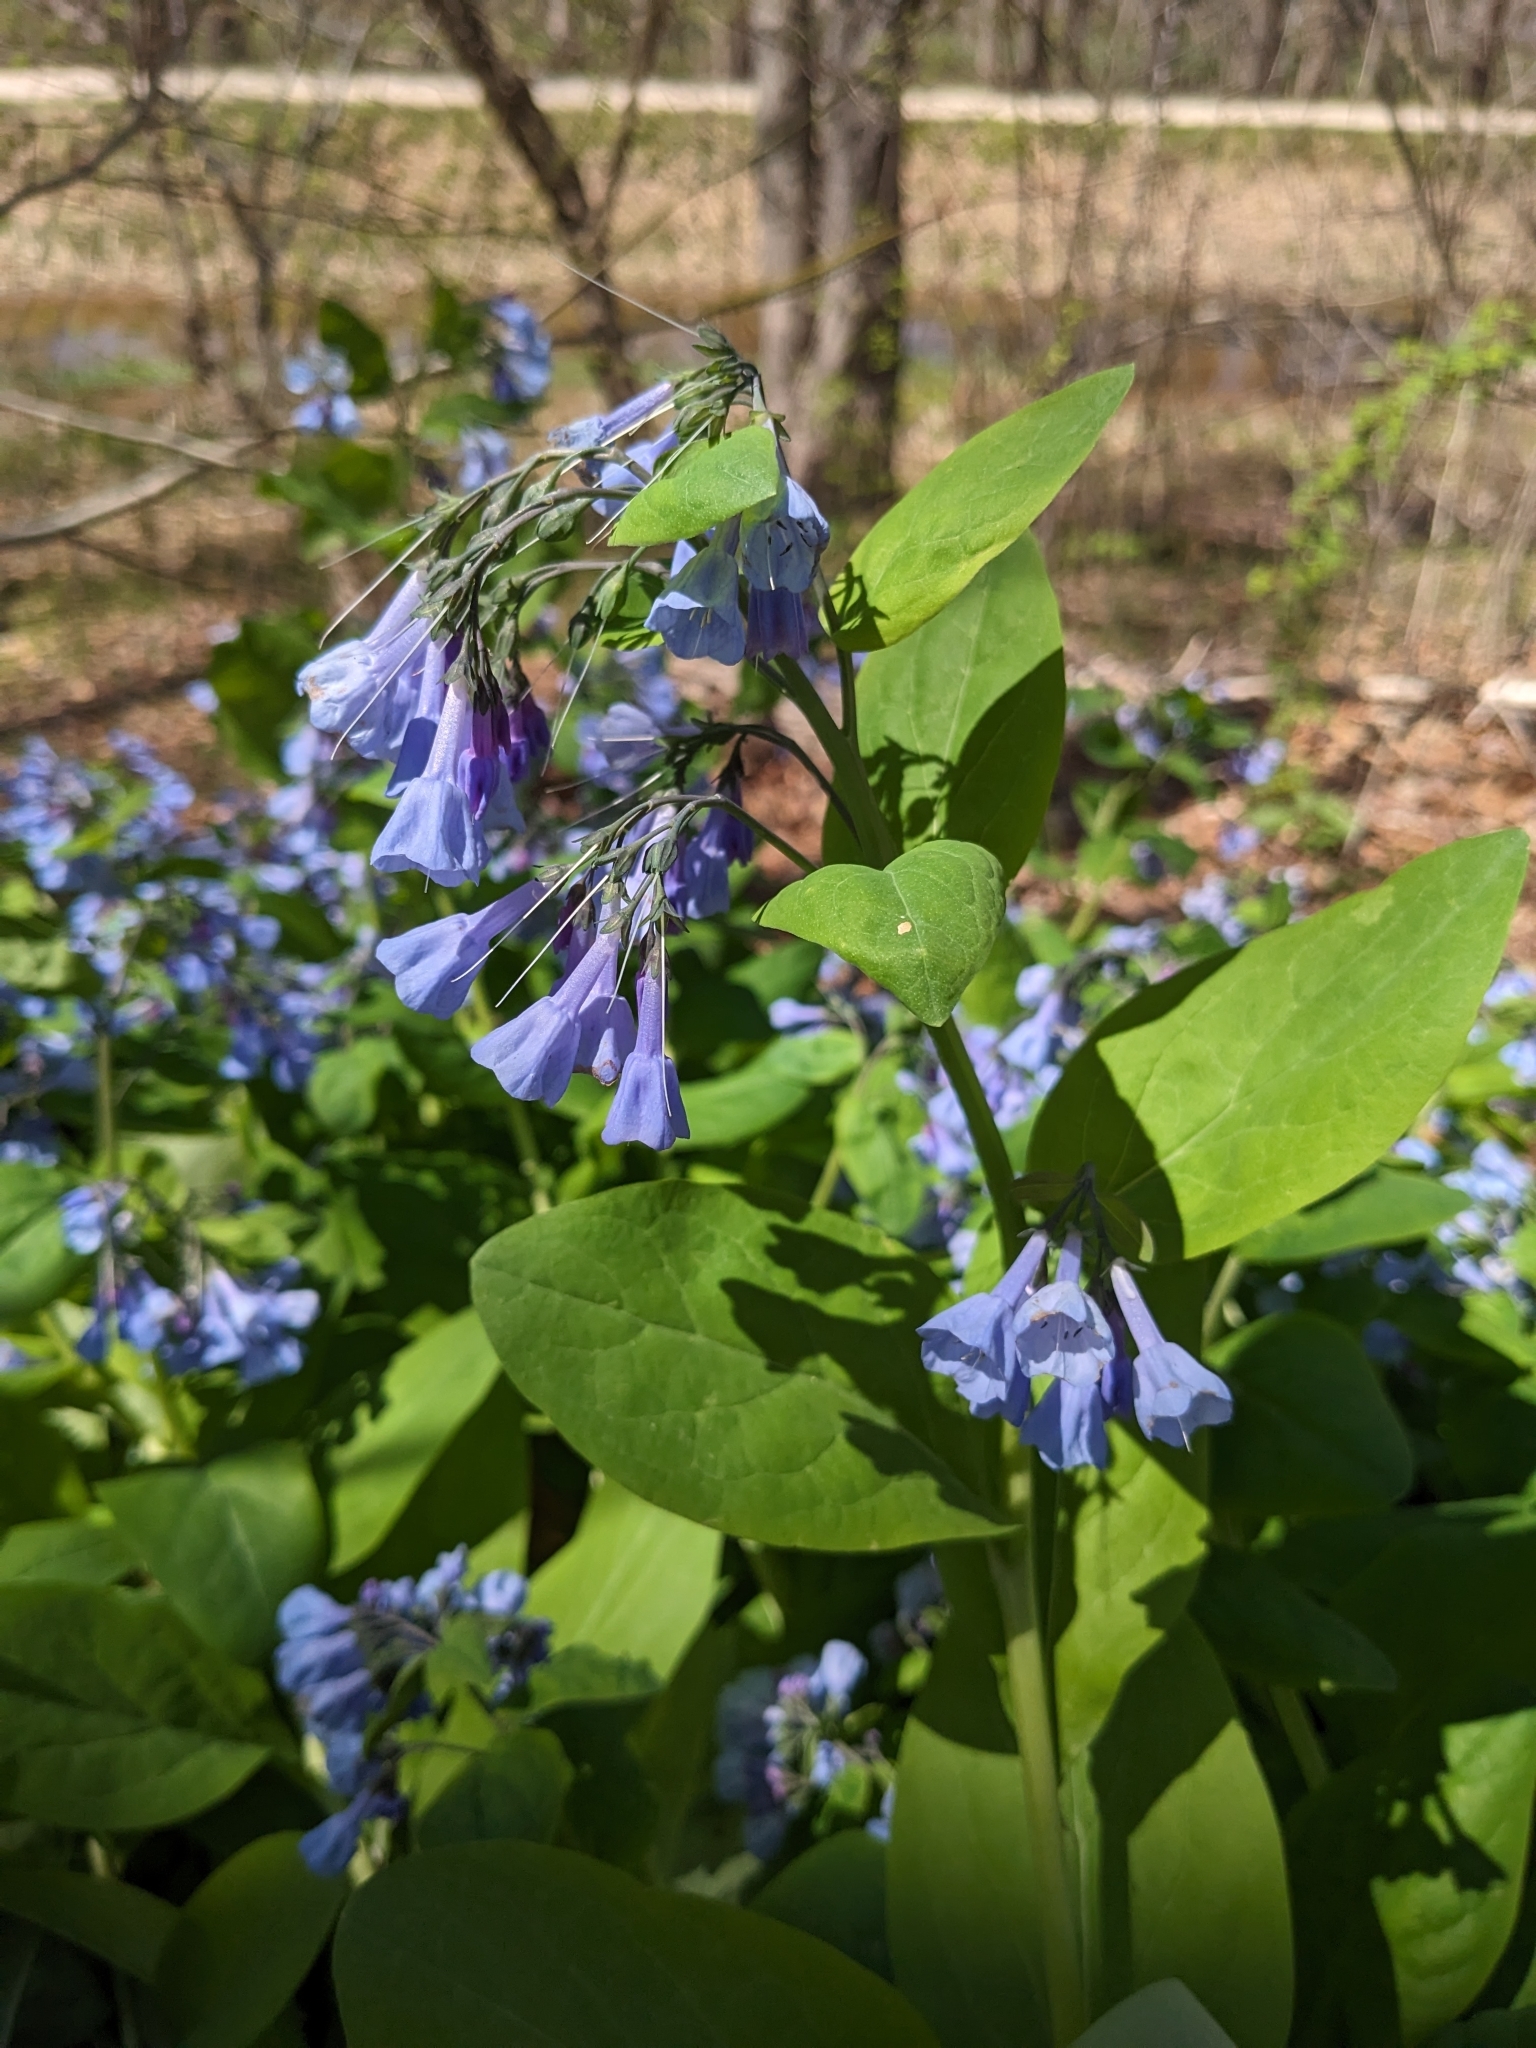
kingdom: Plantae
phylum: Tracheophyta
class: Magnoliopsida
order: Boraginales
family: Boraginaceae
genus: Mertensia
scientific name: Mertensia virginica
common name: Virginia bluebells
